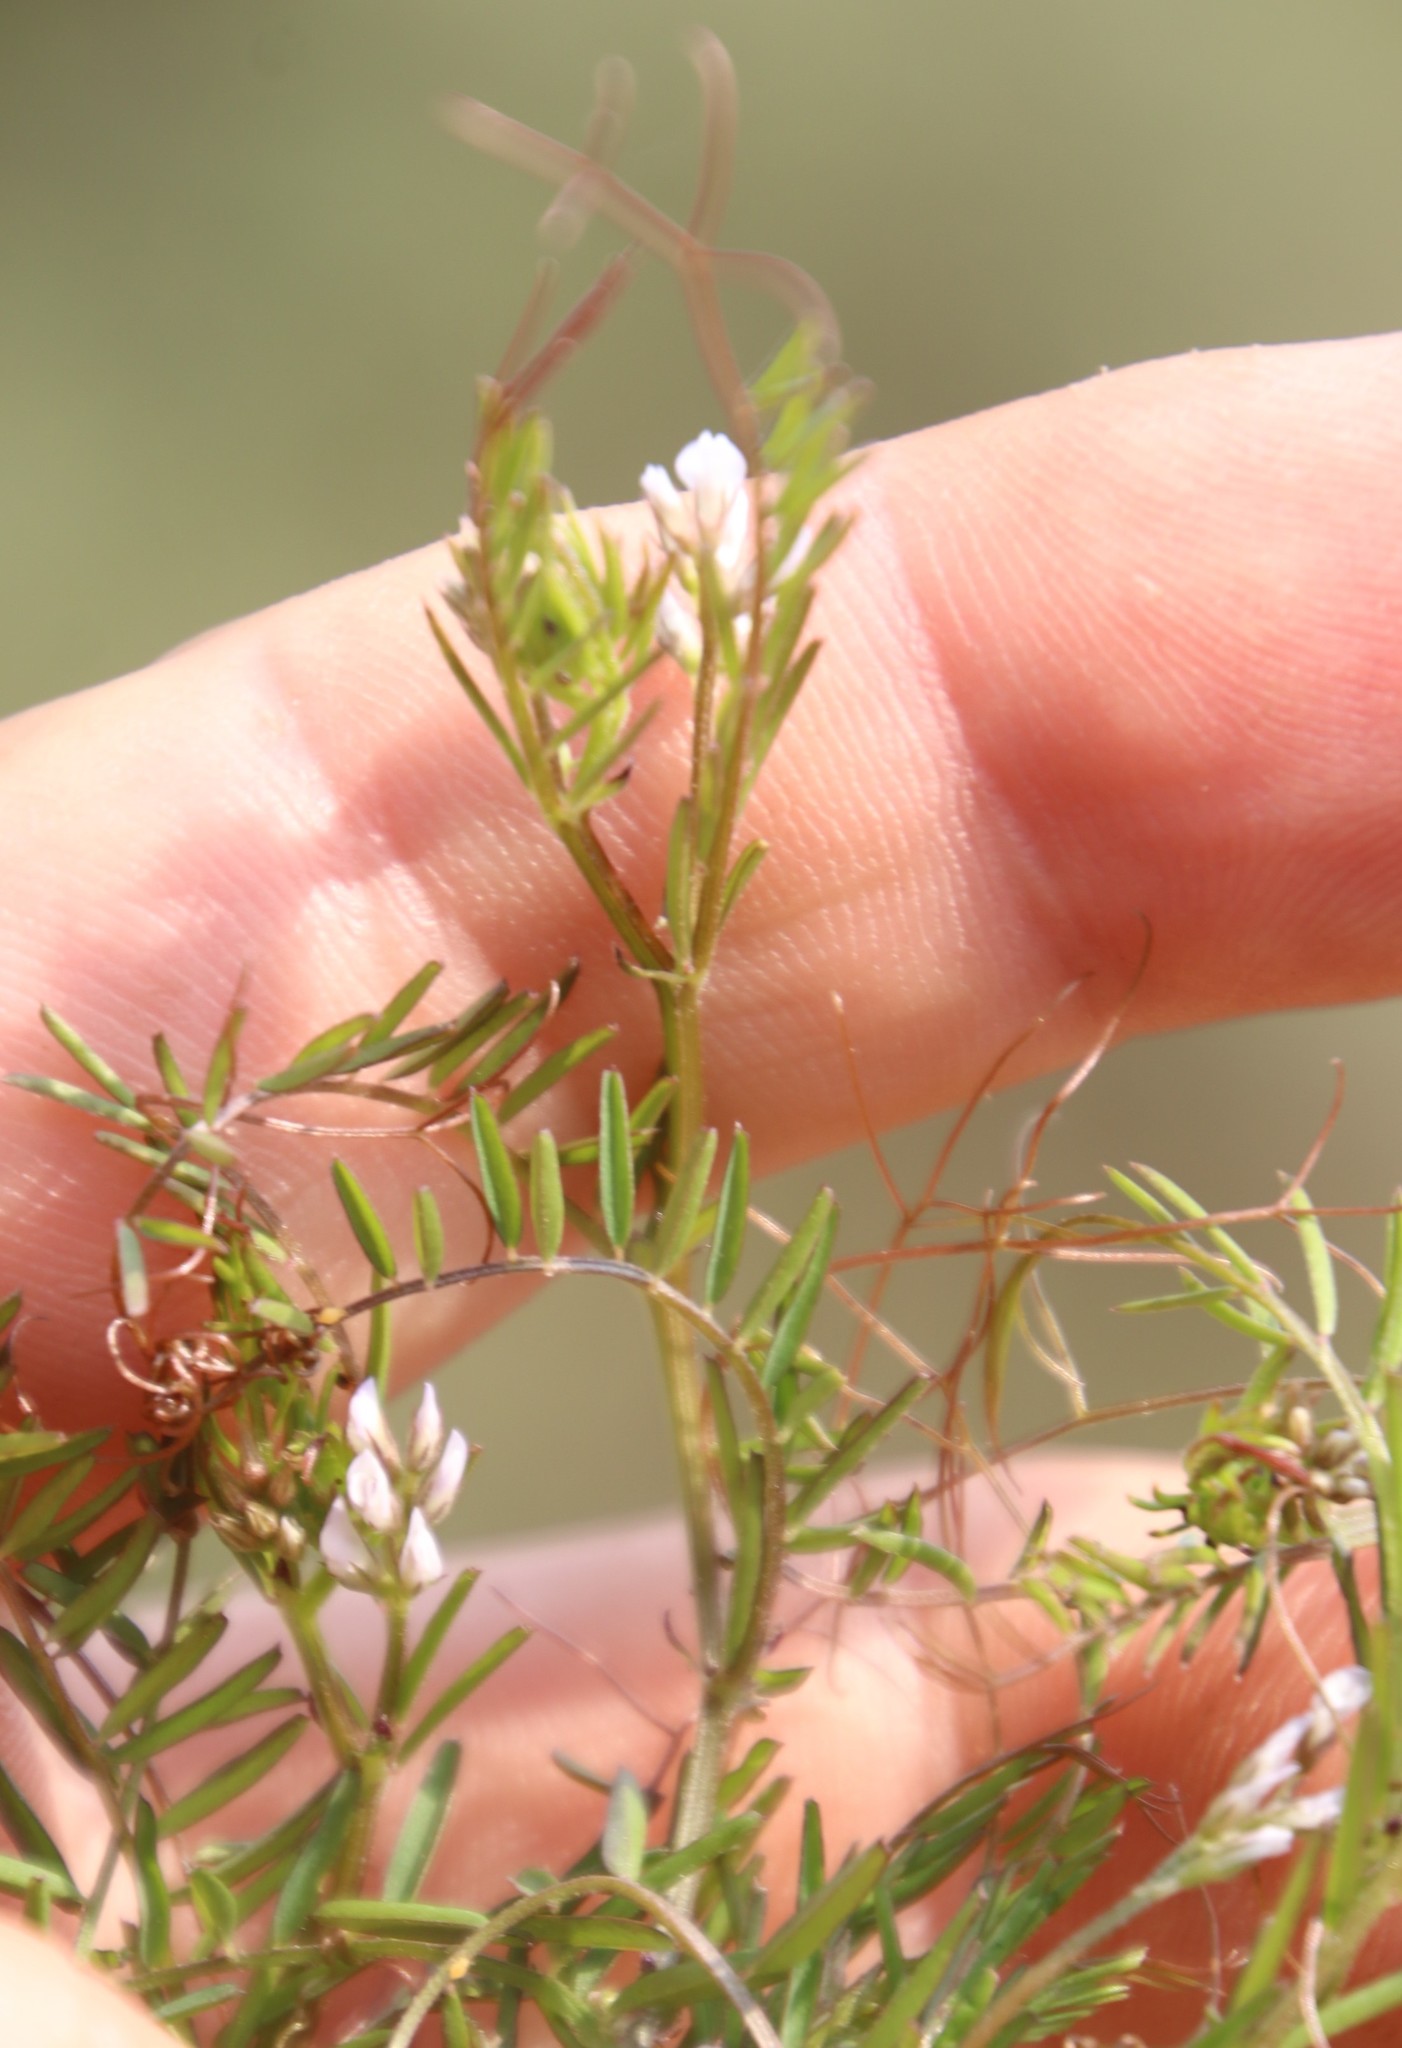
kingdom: Plantae
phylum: Tracheophyta
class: Magnoliopsida
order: Fabales
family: Fabaceae
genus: Vicia
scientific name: Vicia hirsuta
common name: Tiny vetch
